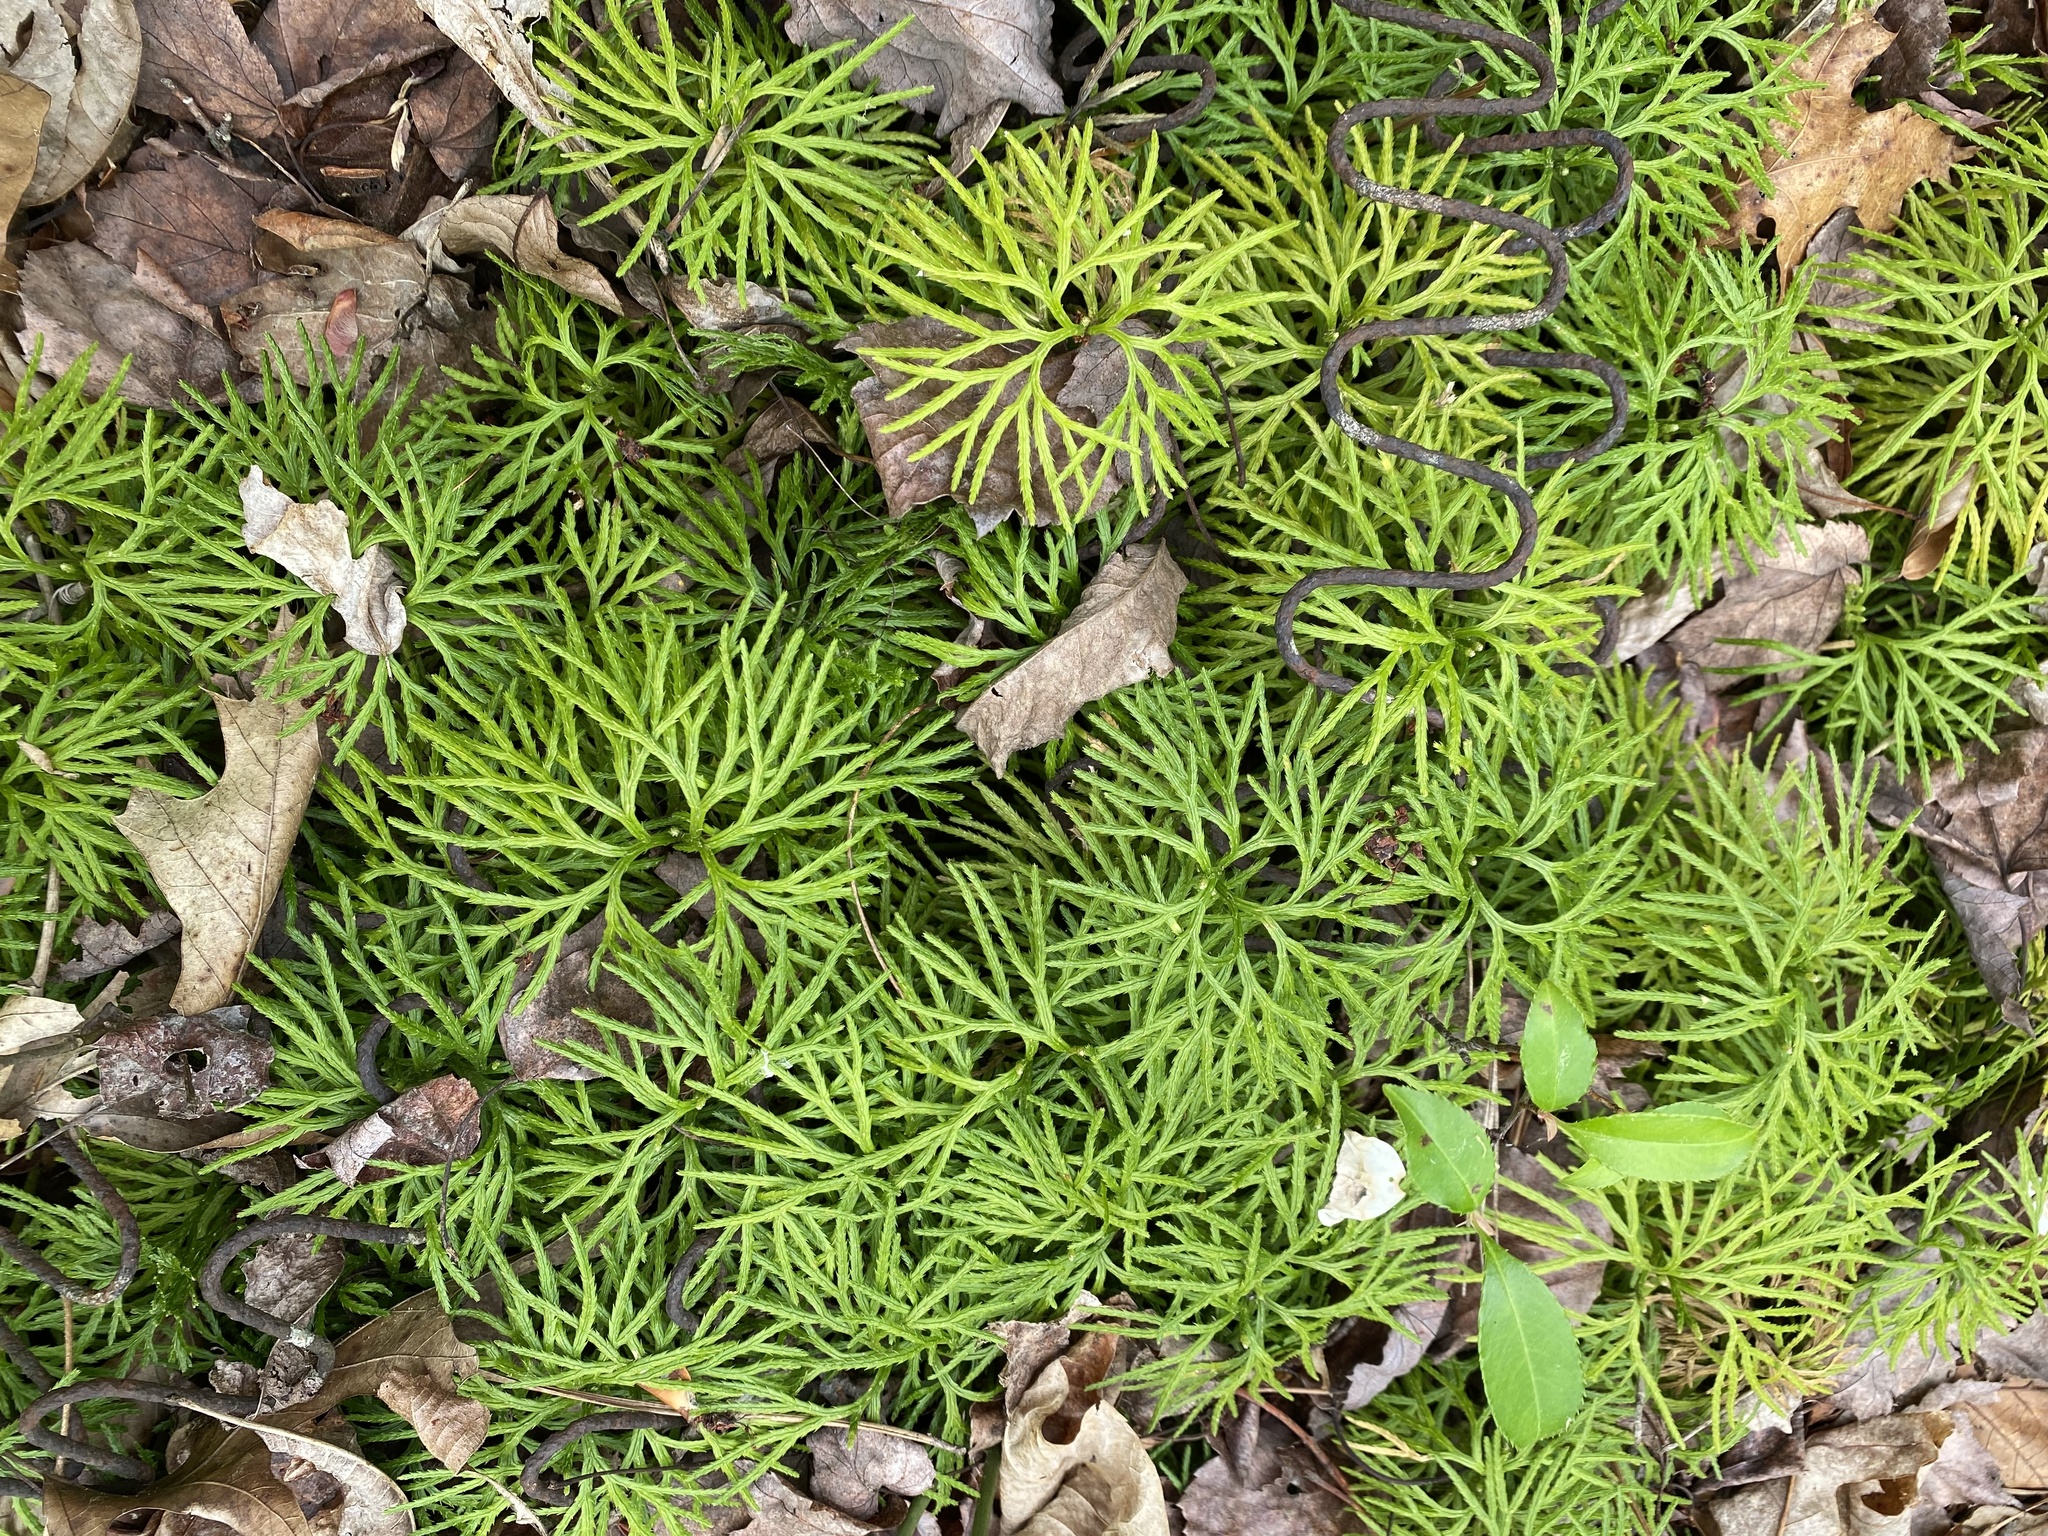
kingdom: Plantae
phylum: Tracheophyta
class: Lycopodiopsida
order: Lycopodiales
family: Lycopodiaceae
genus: Diphasiastrum
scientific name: Diphasiastrum digitatum
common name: Southern running-pine
